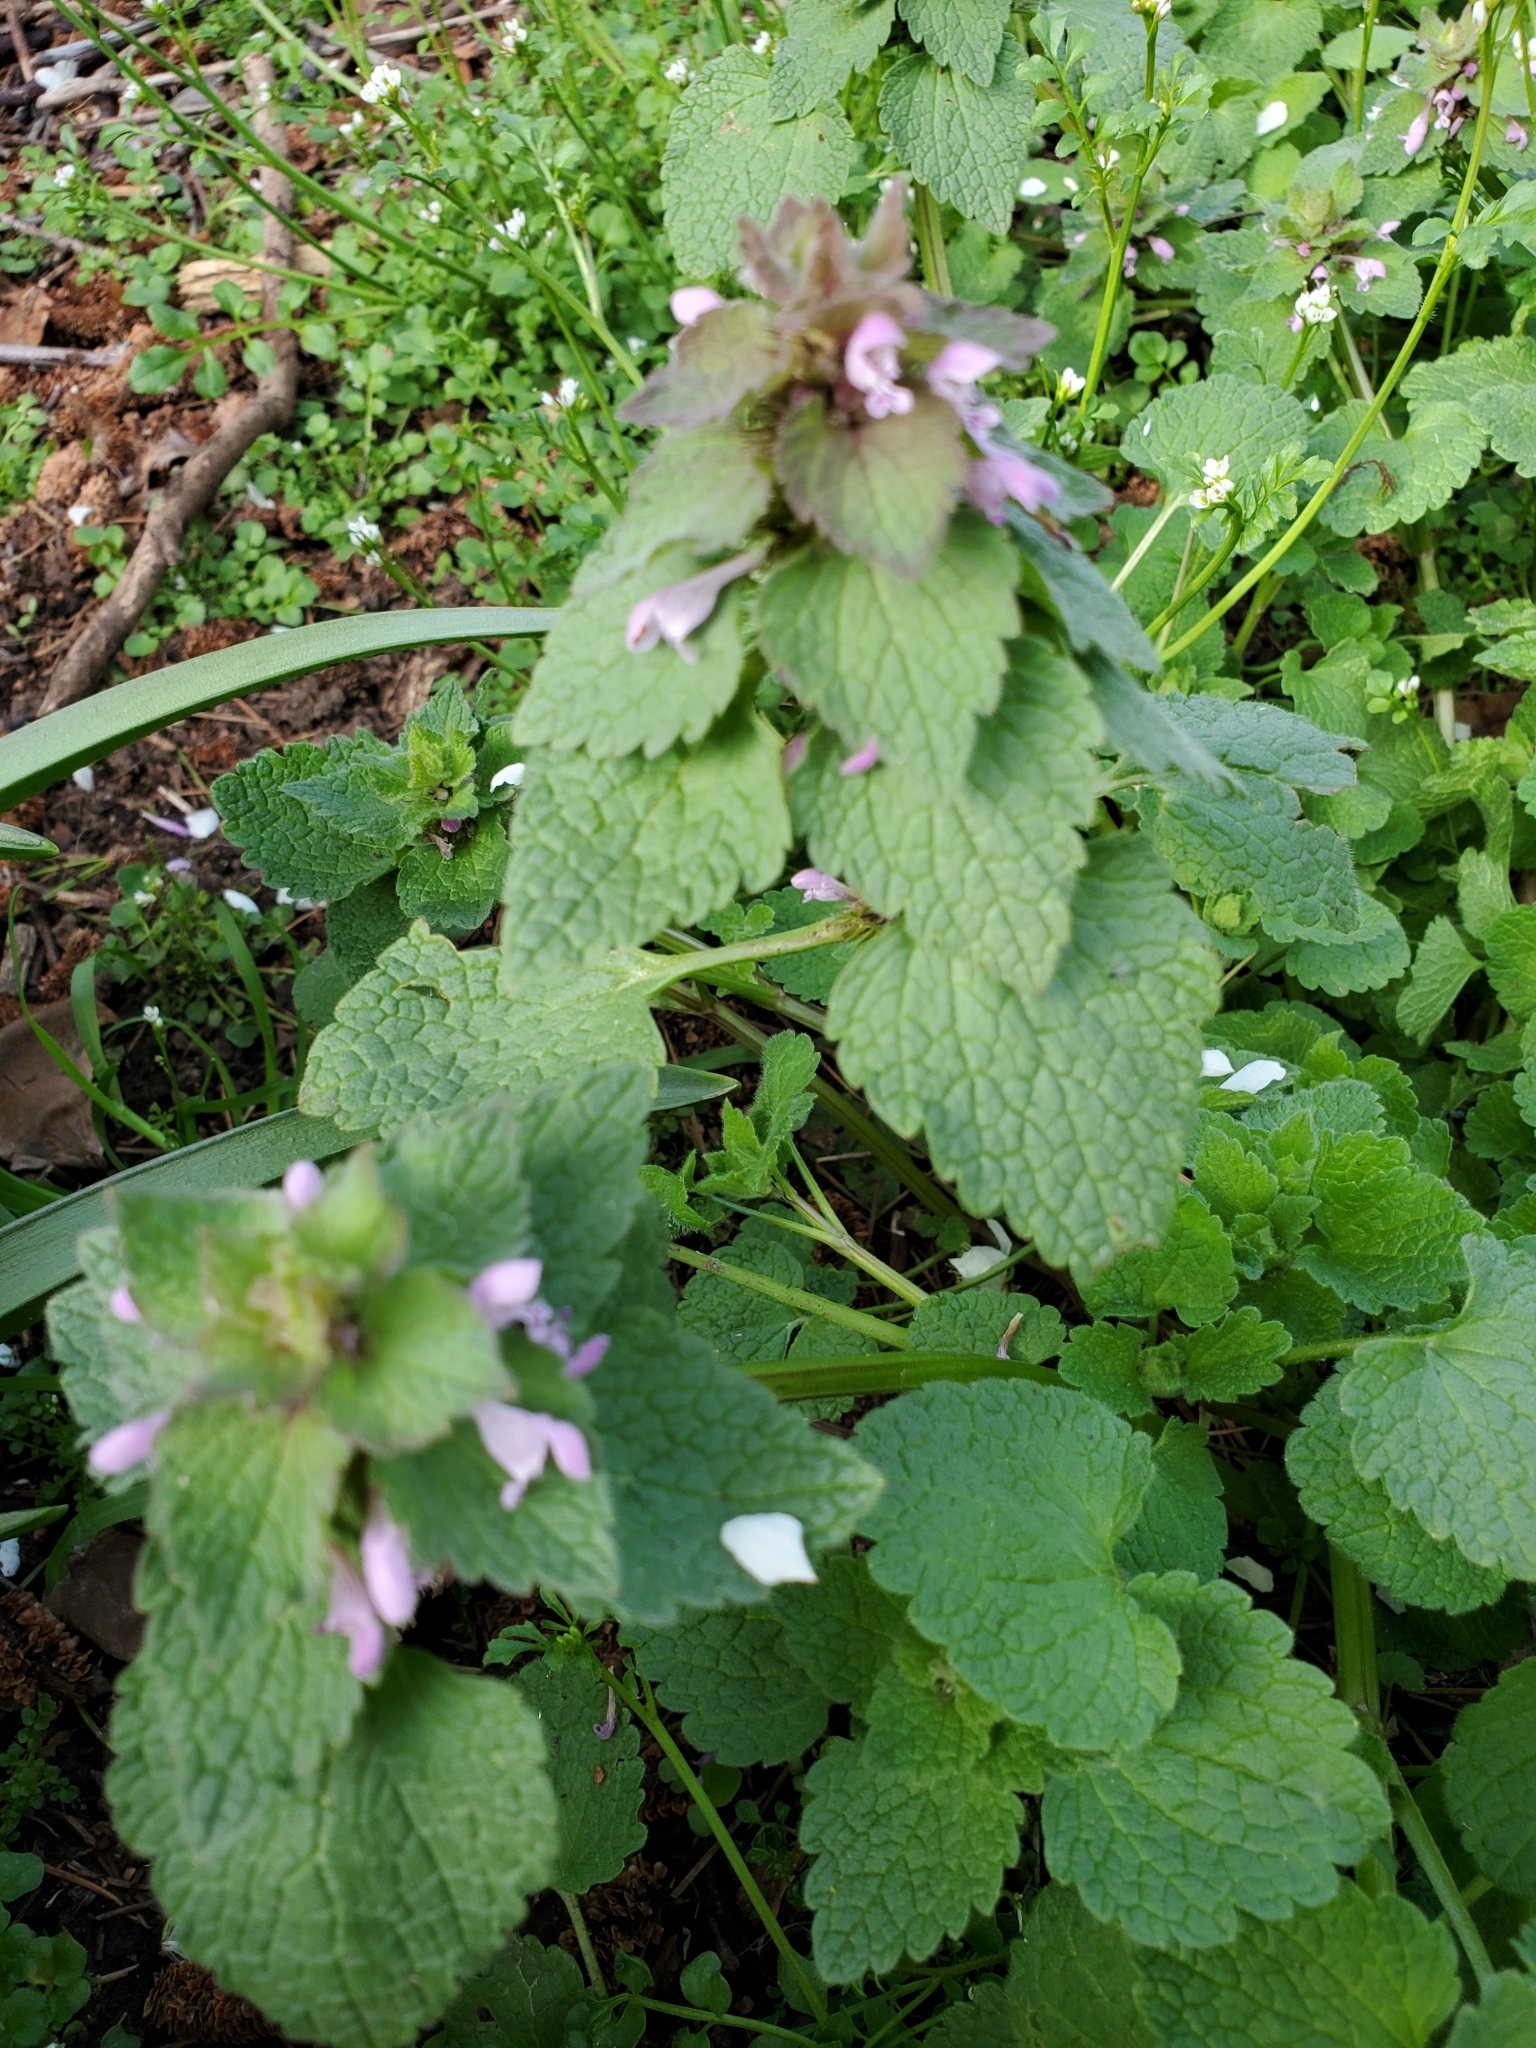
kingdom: Plantae
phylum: Tracheophyta
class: Magnoliopsida
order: Lamiales
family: Lamiaceae
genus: Lamium
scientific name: Lamium purpureum
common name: Red dead-nettle
